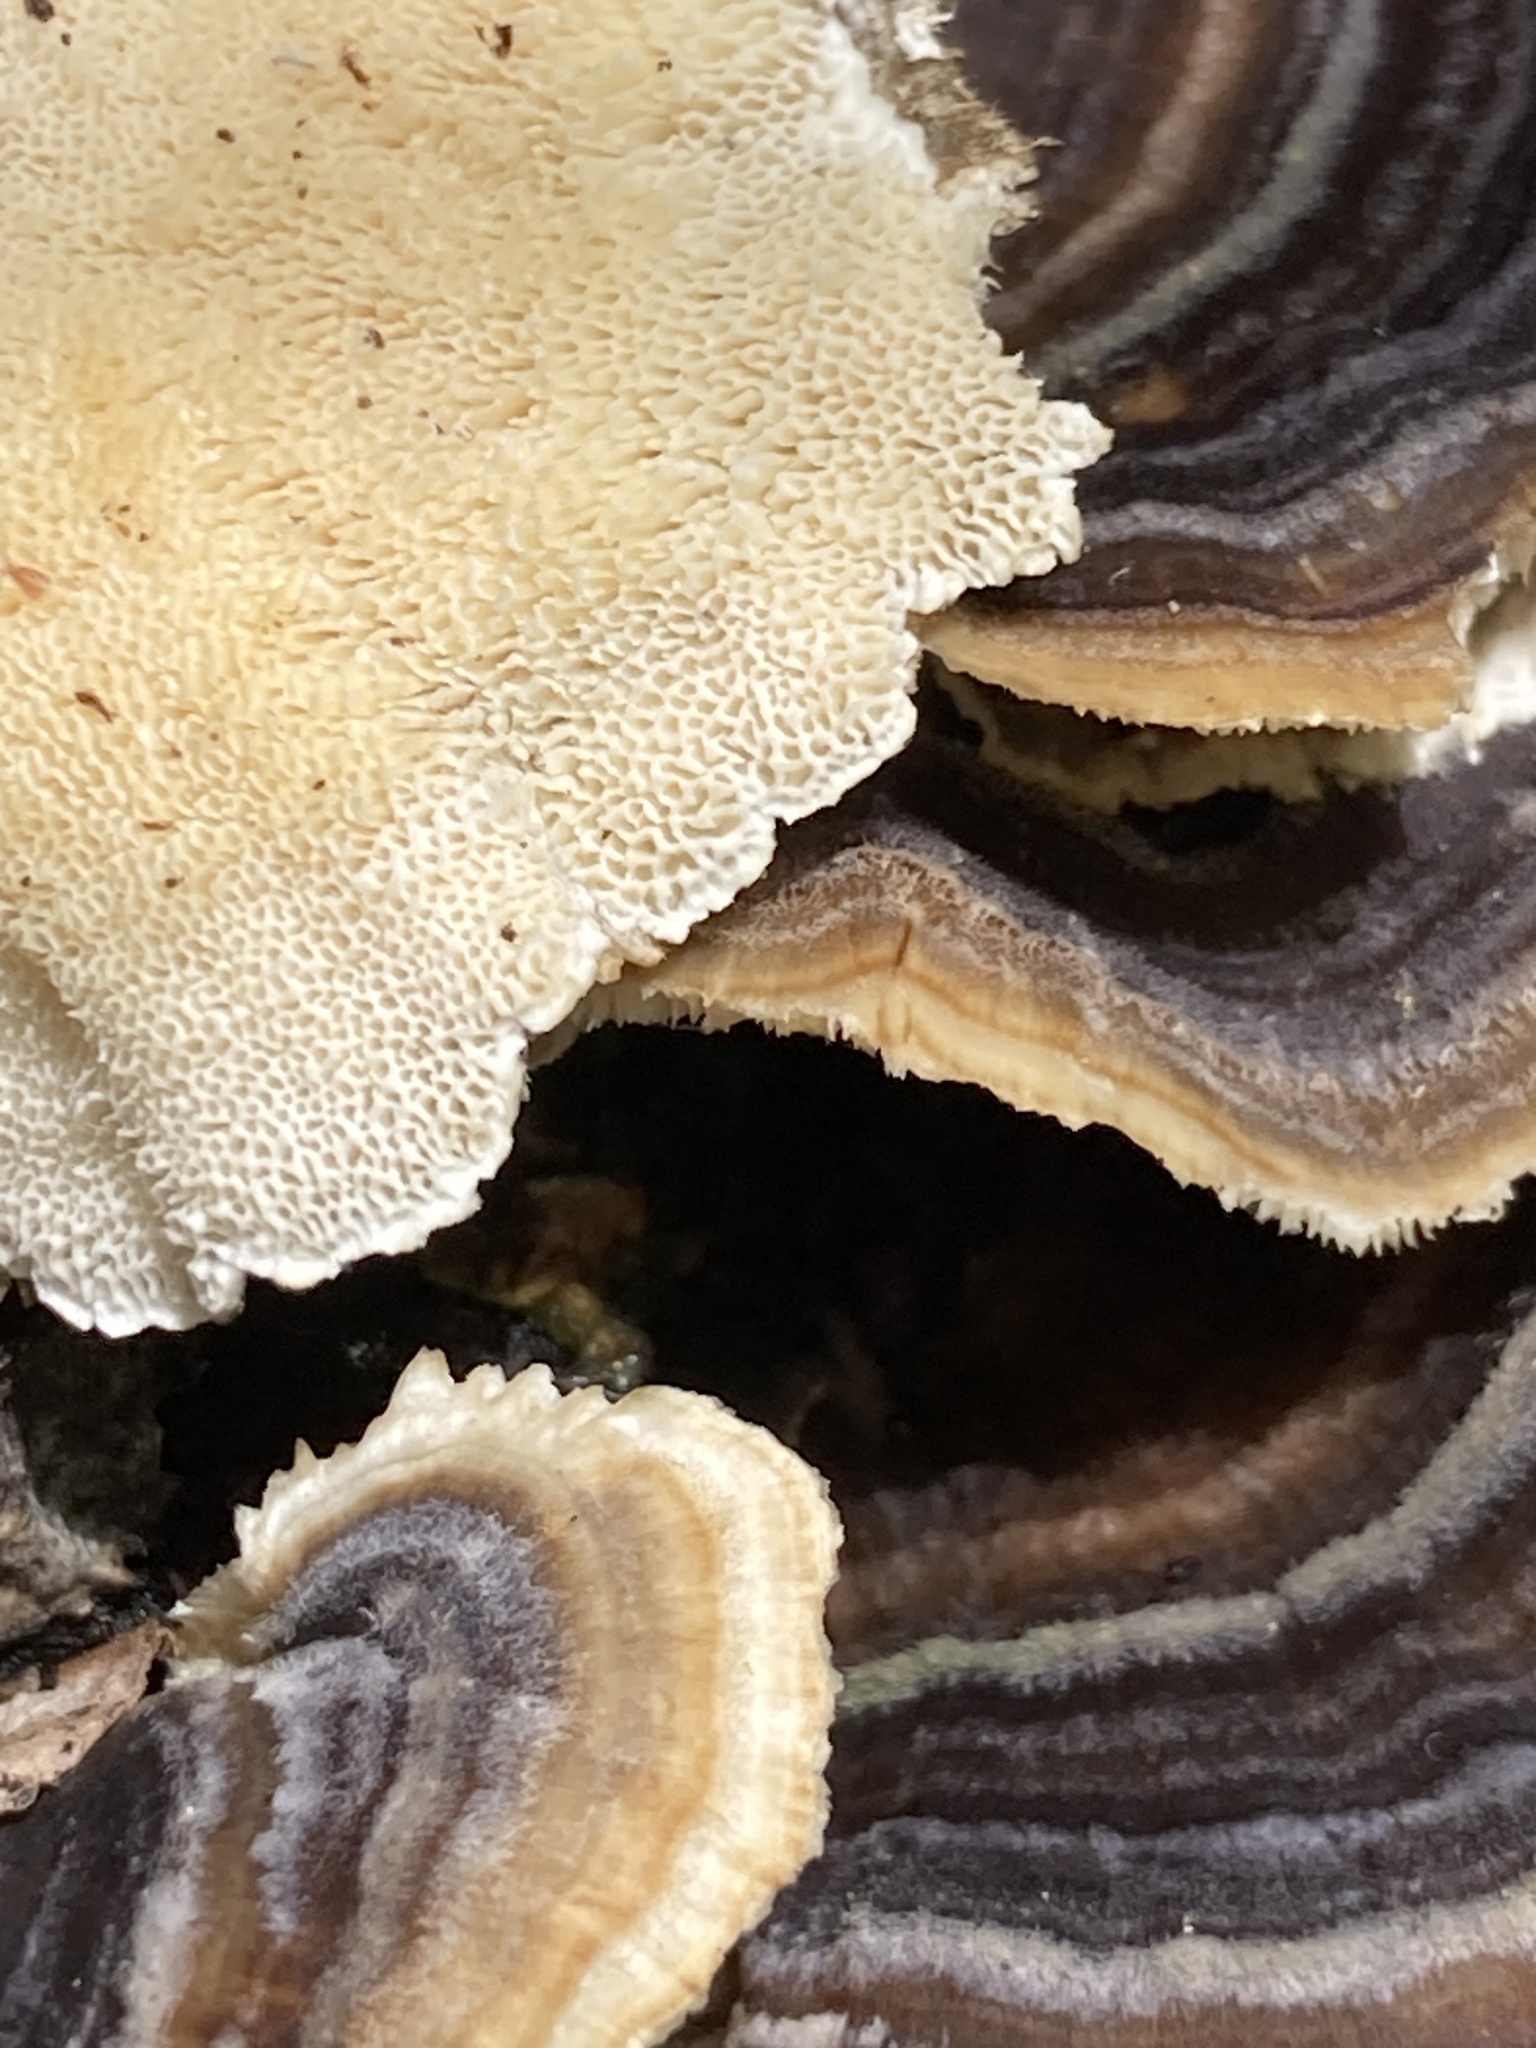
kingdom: Fungi
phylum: Basidiomycota
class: Agaricomycetes
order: Polyporales
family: Polyporaceae
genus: Trametes
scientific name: Trametes versicolor
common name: Turkeytail
